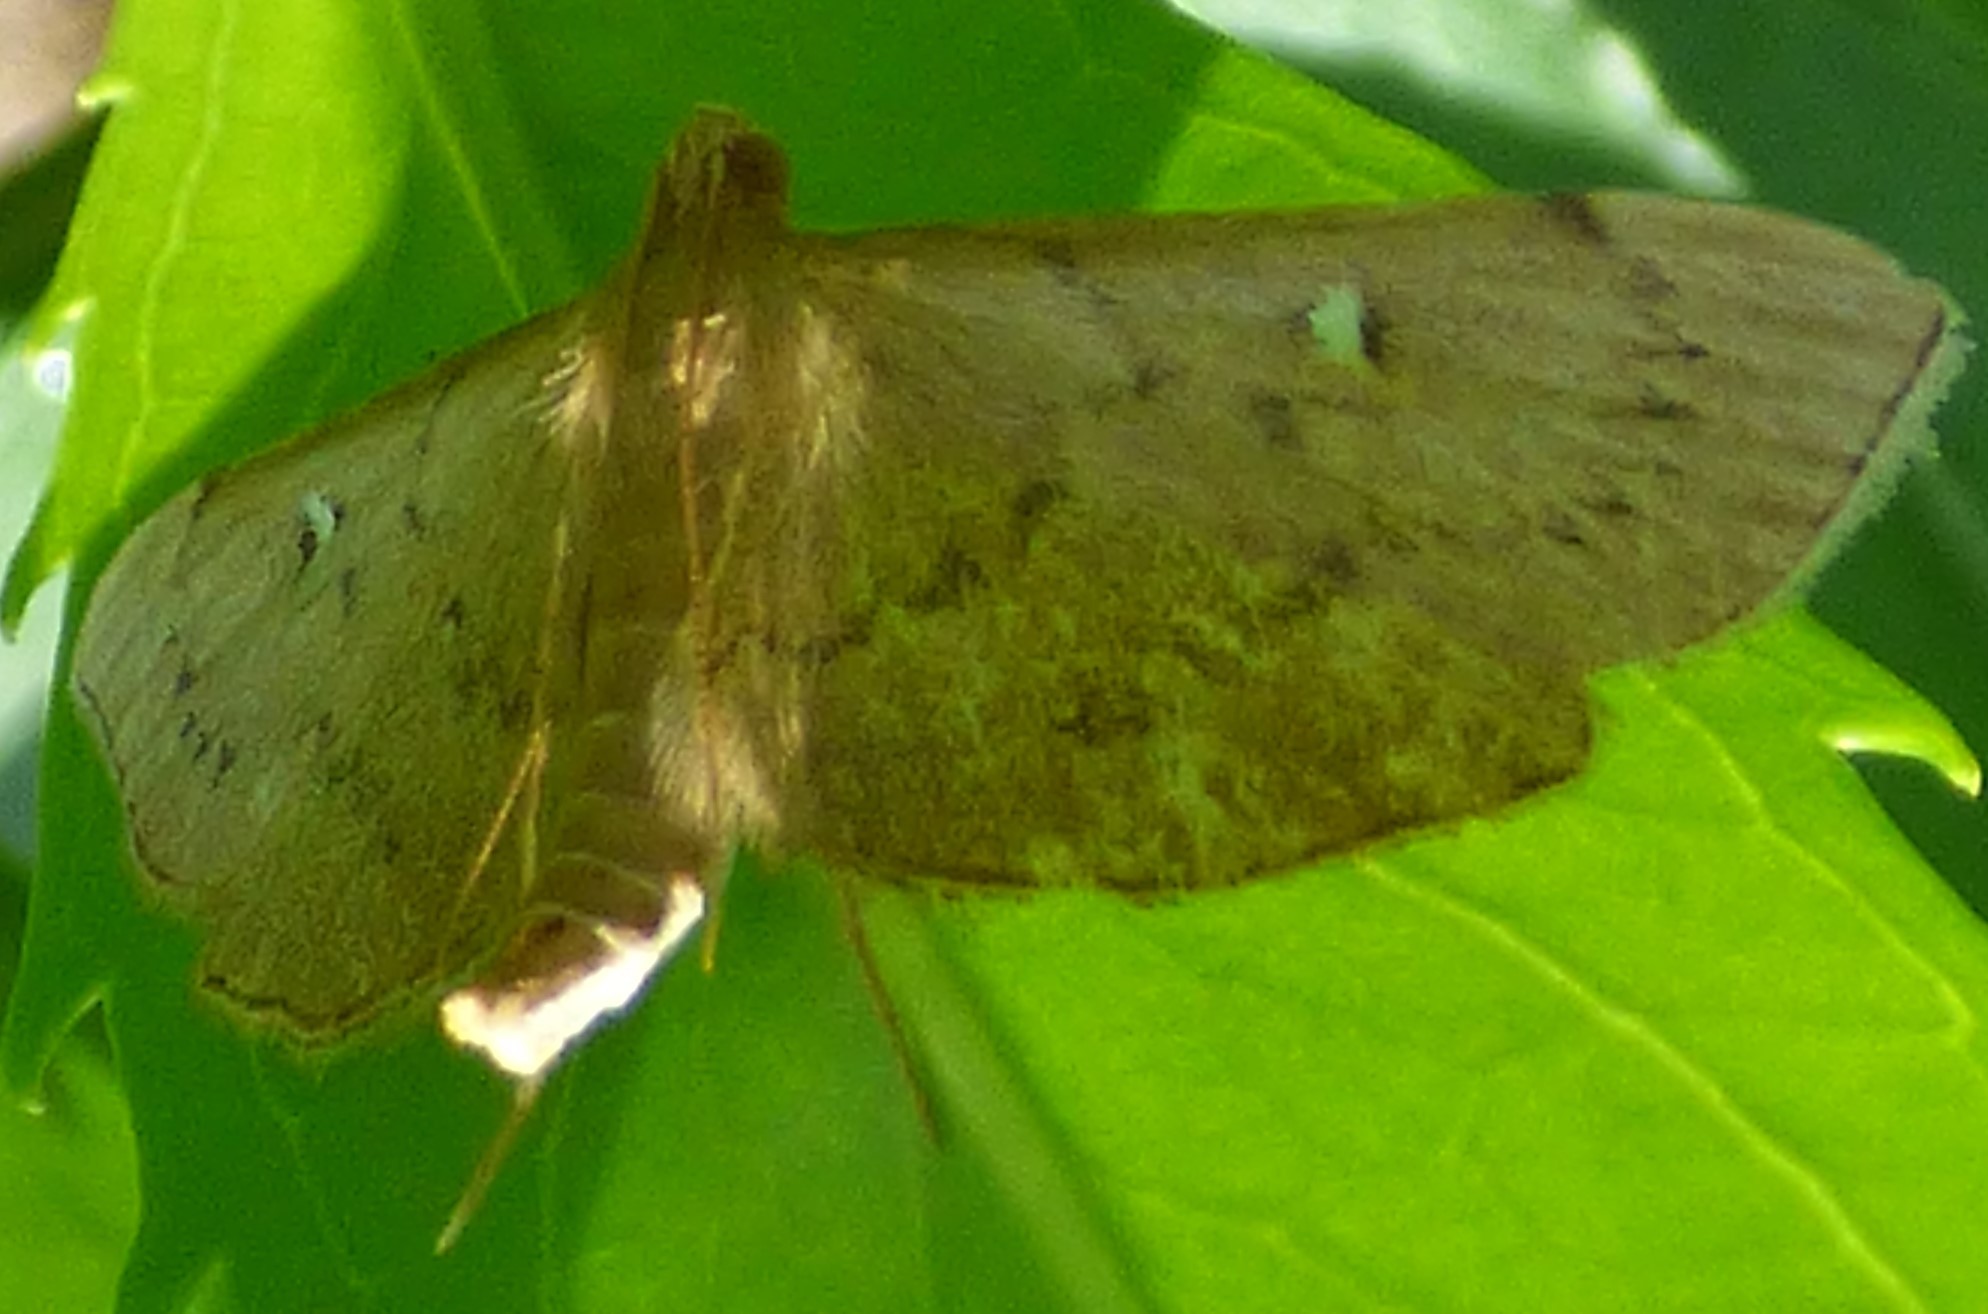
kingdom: Animalia
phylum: Arthropoda
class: Insecta
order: Lepidoptera
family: Crambidae
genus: Geshna
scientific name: Geshna cannalis
